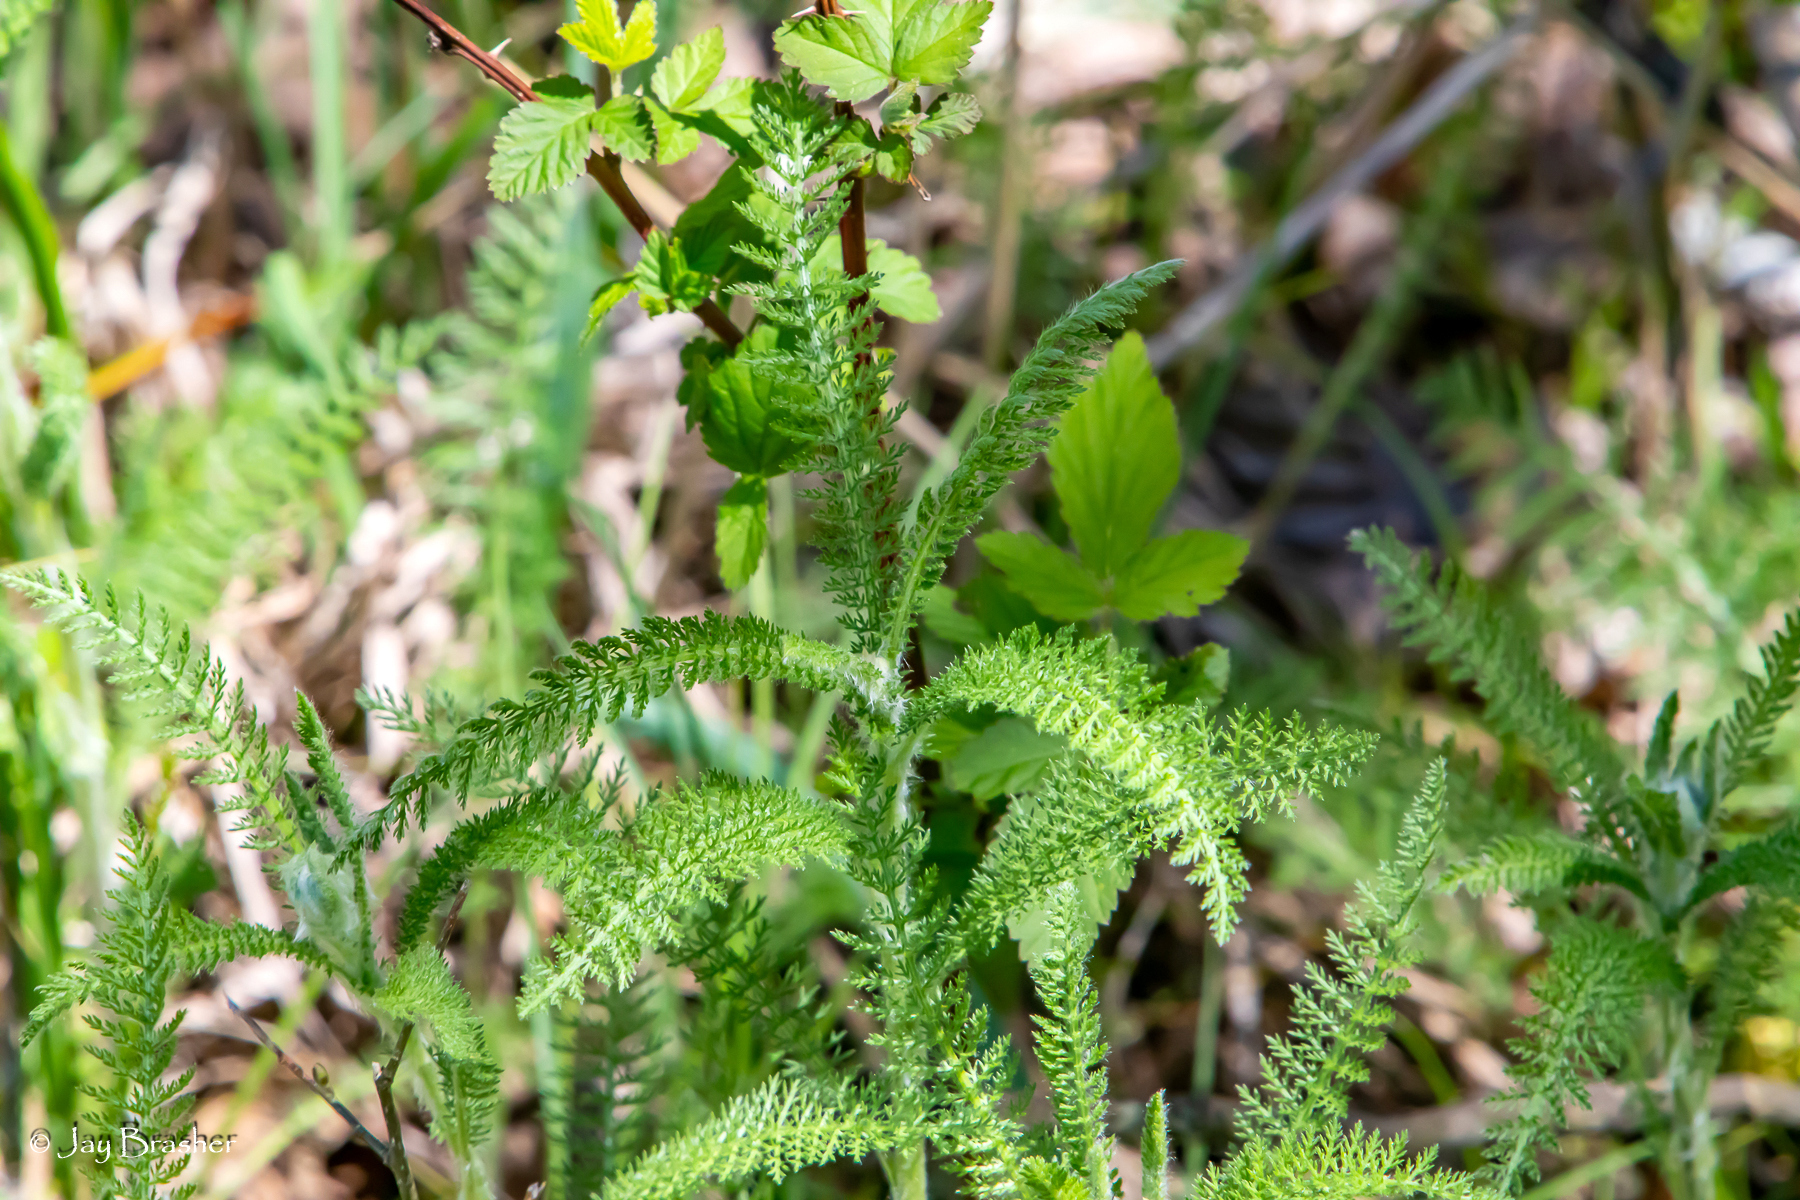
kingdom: Plantae
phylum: Tracheophyta
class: Magnoliopsida
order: Asterales
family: Asteraceae
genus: Achillea
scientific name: Achillea millefolium
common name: Yarrow
